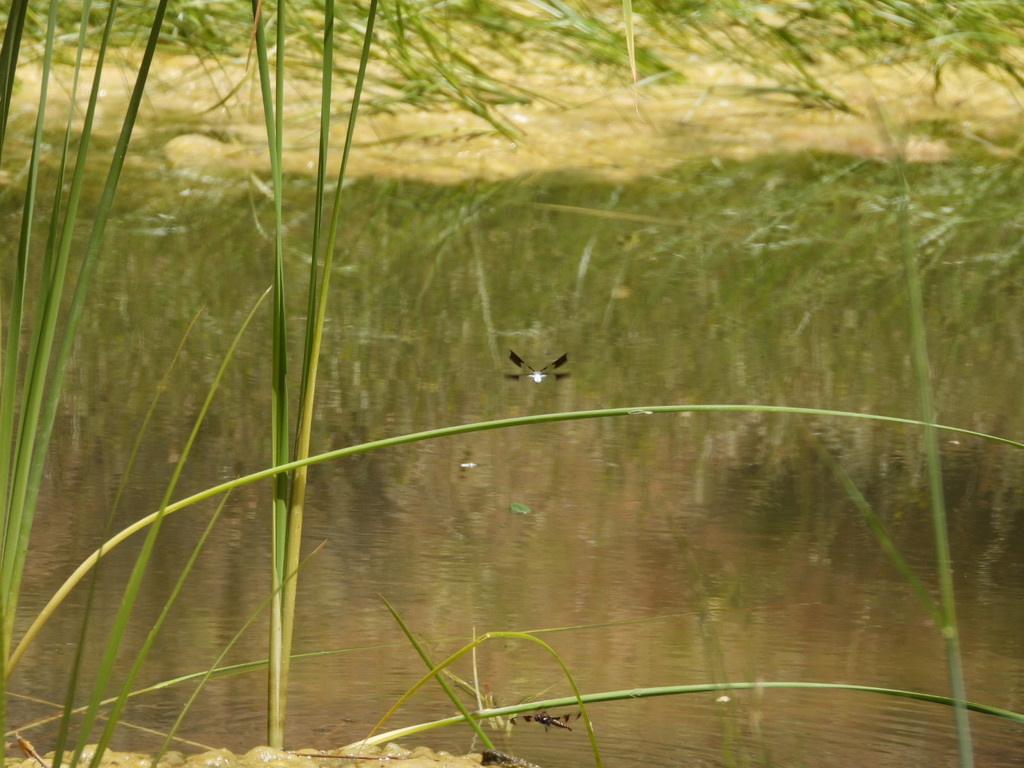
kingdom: Animalia
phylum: Arthropoda
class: Insecta
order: Odonata
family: Libellulidae
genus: Plathemis
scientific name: Plathemis lydia
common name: Common whitetail
